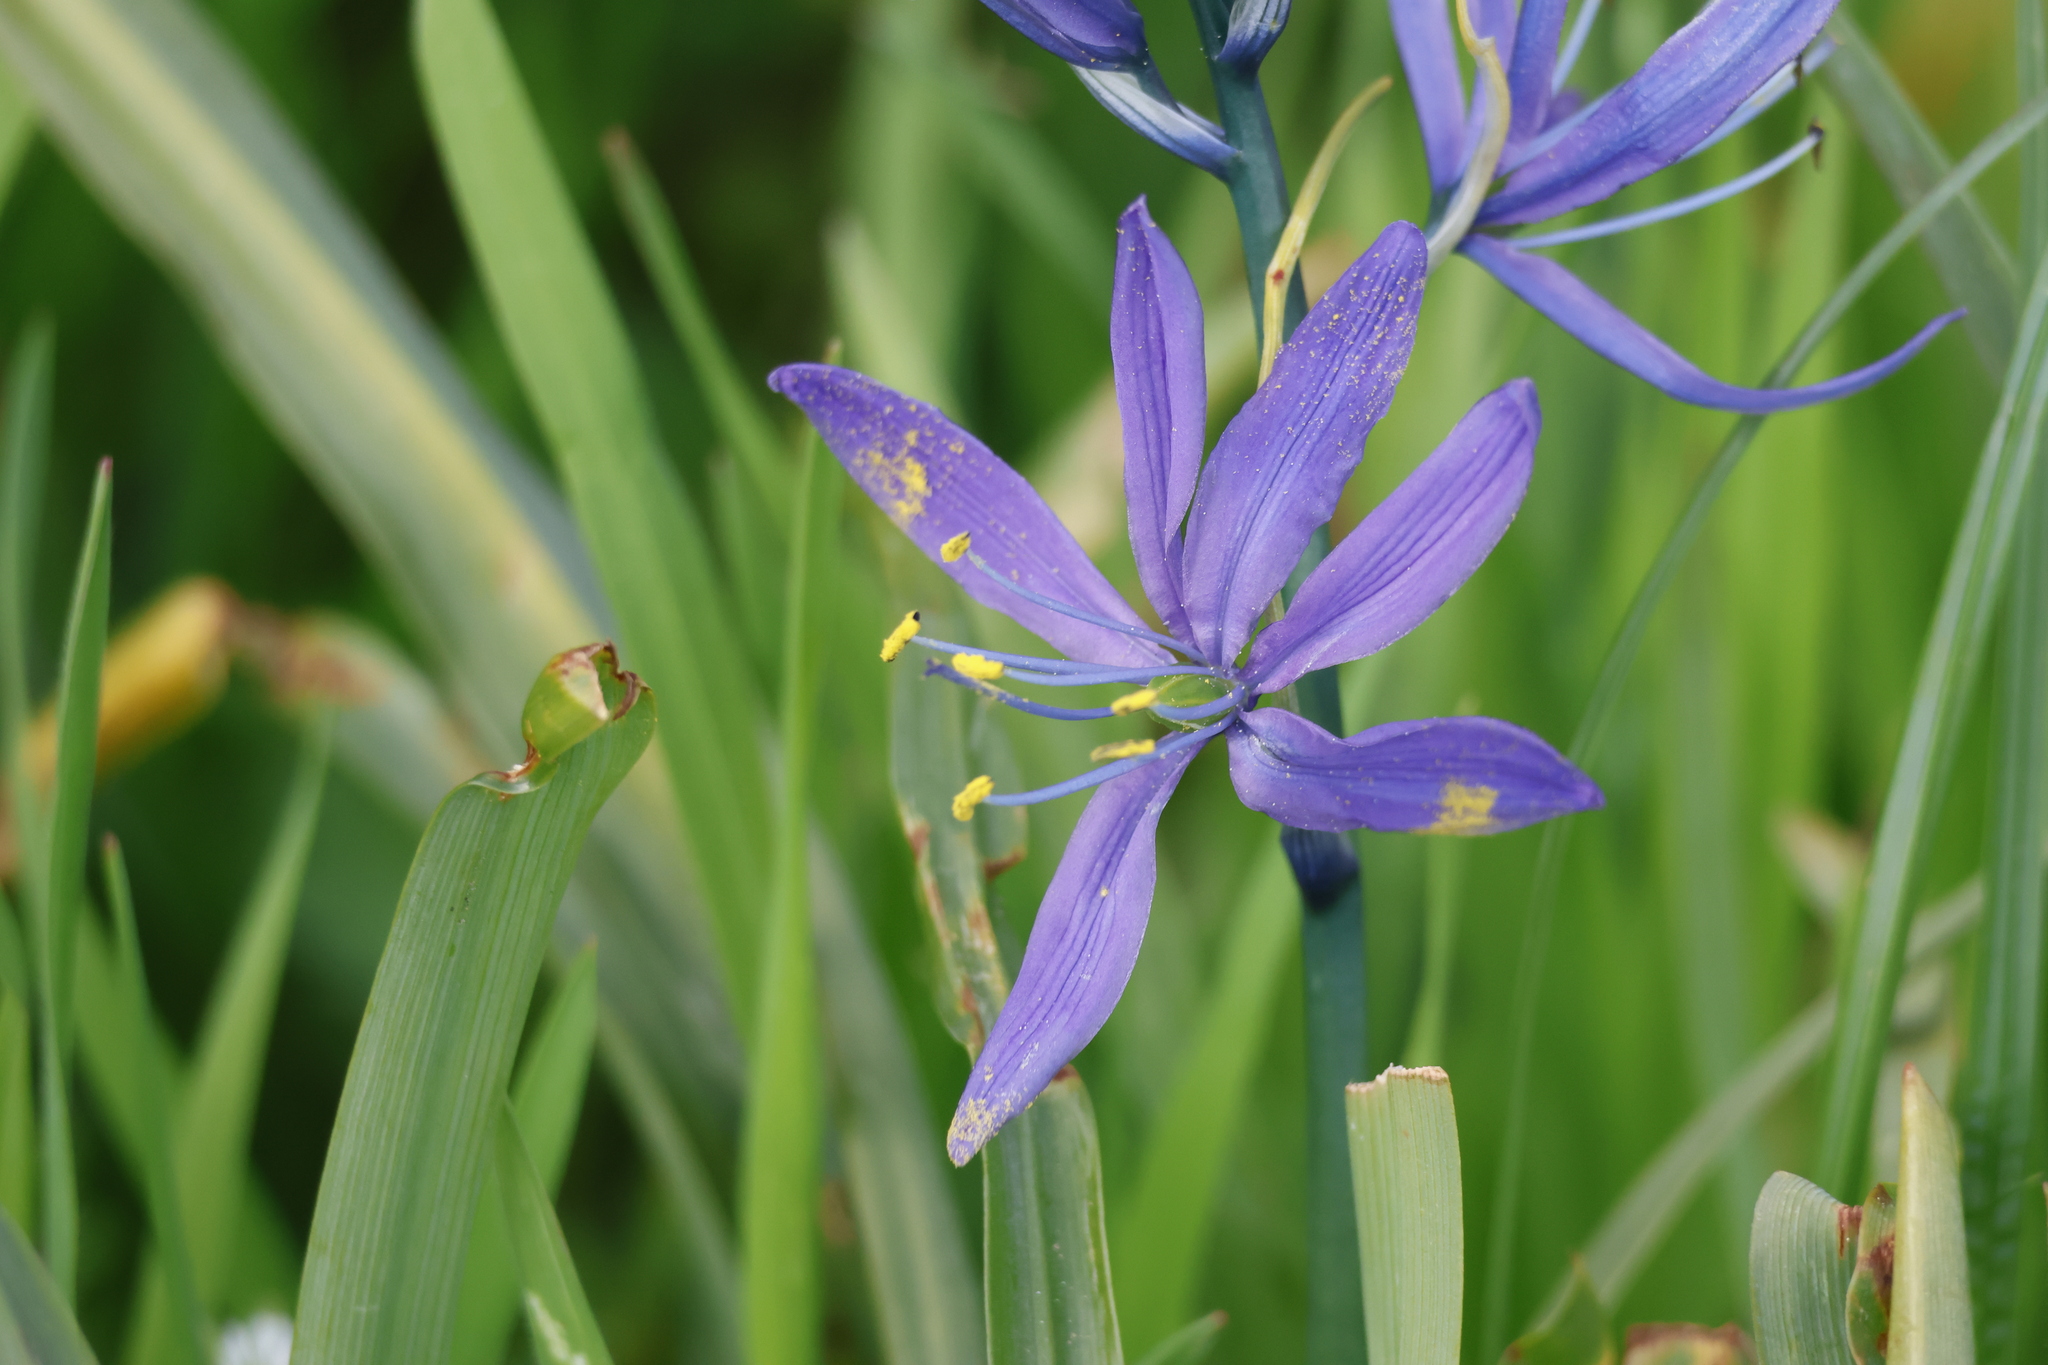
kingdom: Plantae
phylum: Tracheophyta
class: Liliopsida
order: Asparagales
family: Asparagaceae
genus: Camassia
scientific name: Camassia quamash
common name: Common camas
